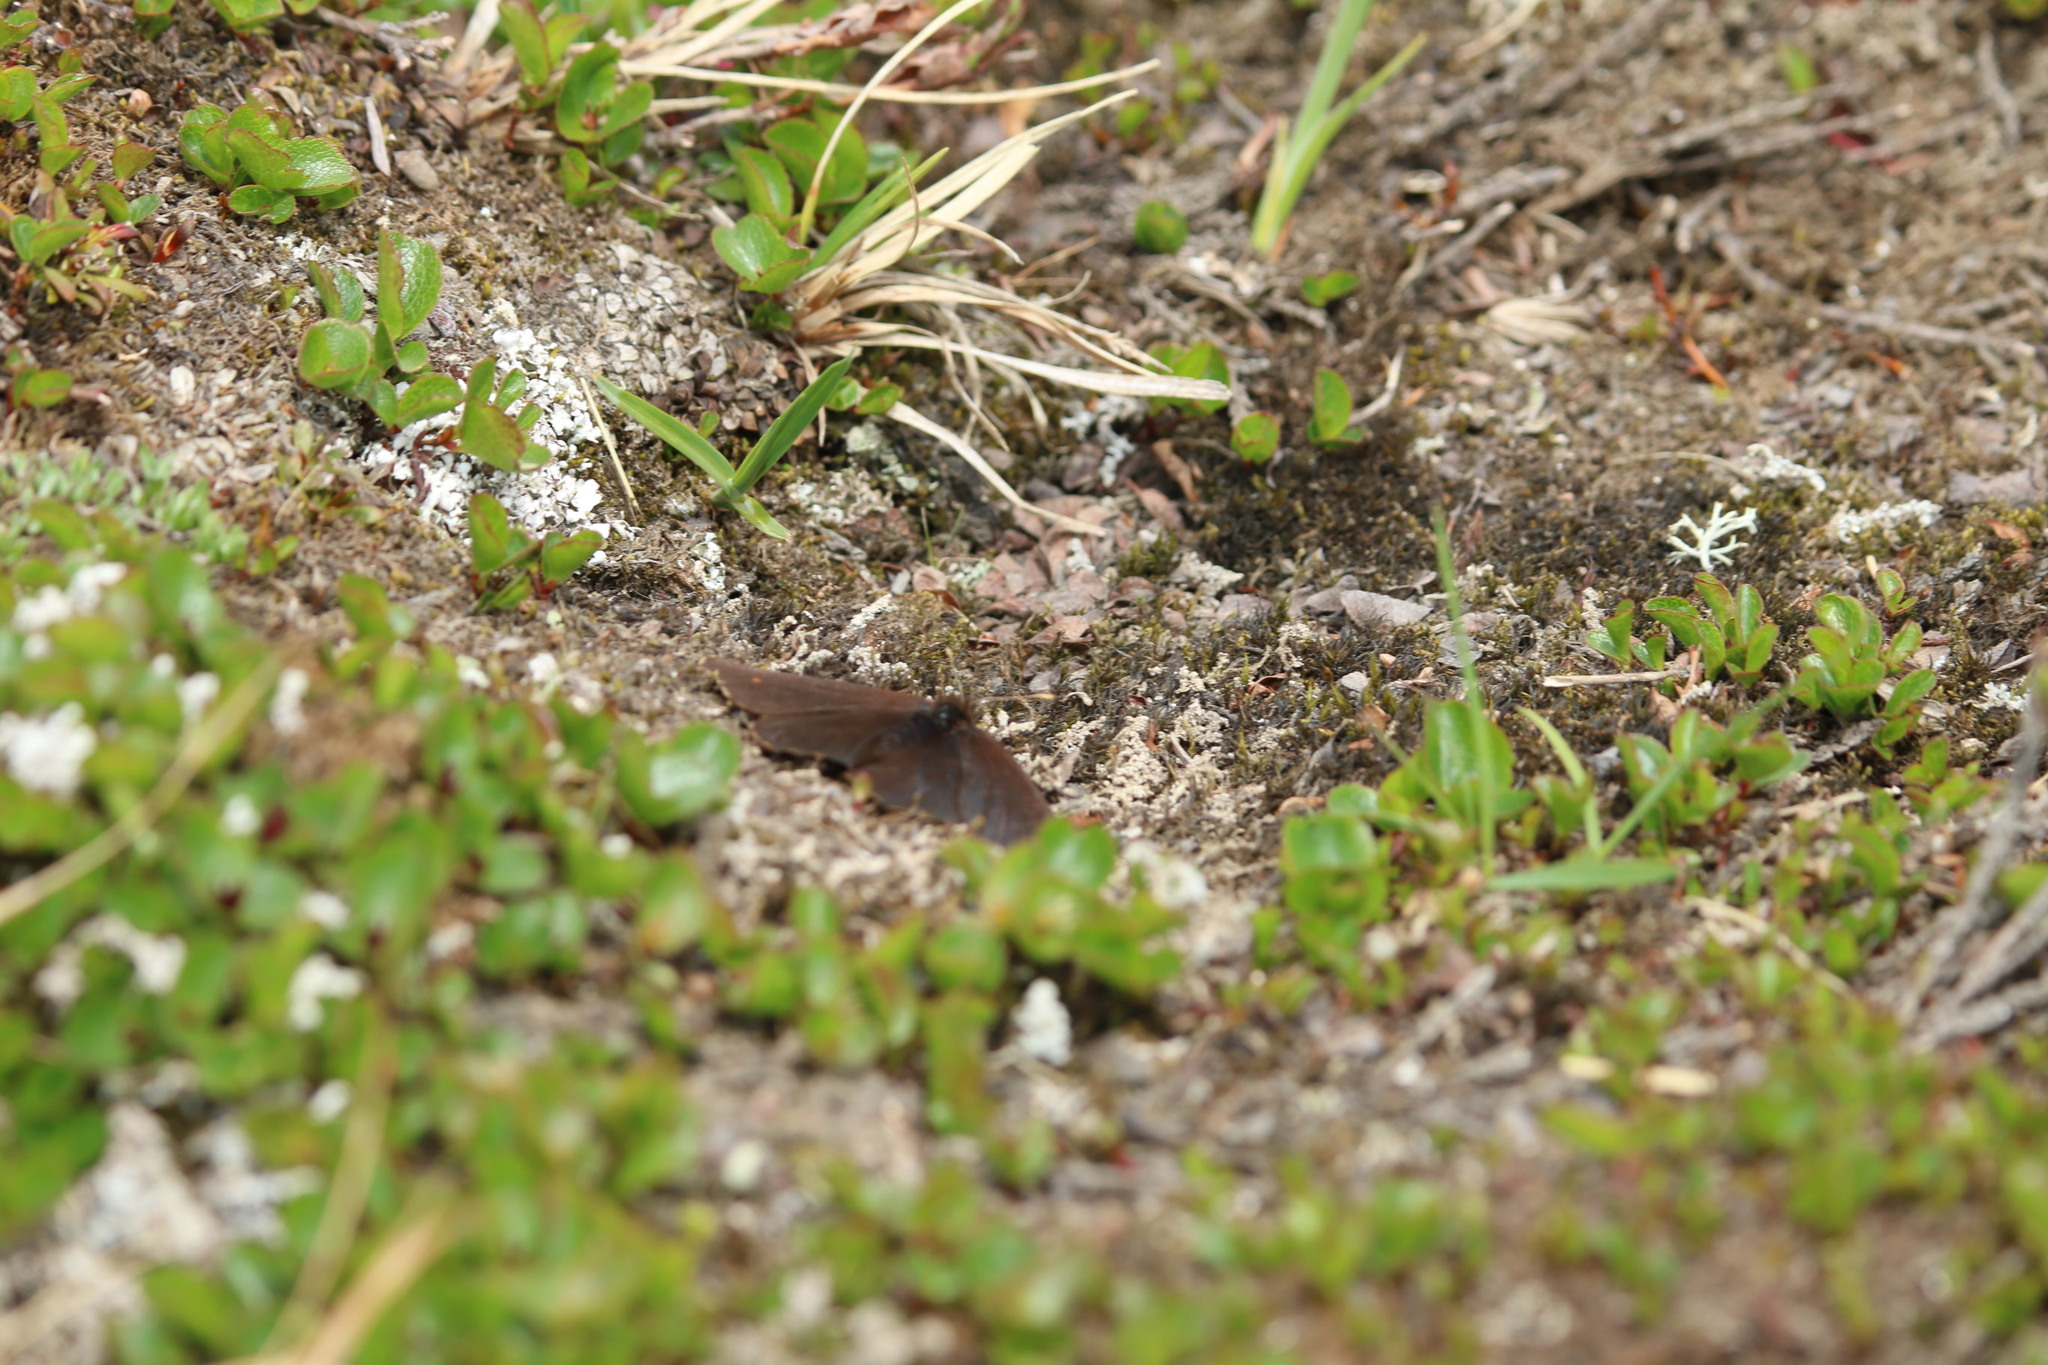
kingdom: Animalia
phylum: Arthropoda
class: Insecta
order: Lepidoptera
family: Nymphalidae
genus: Erebia
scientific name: Erebia rossii
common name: Ross' alpine
